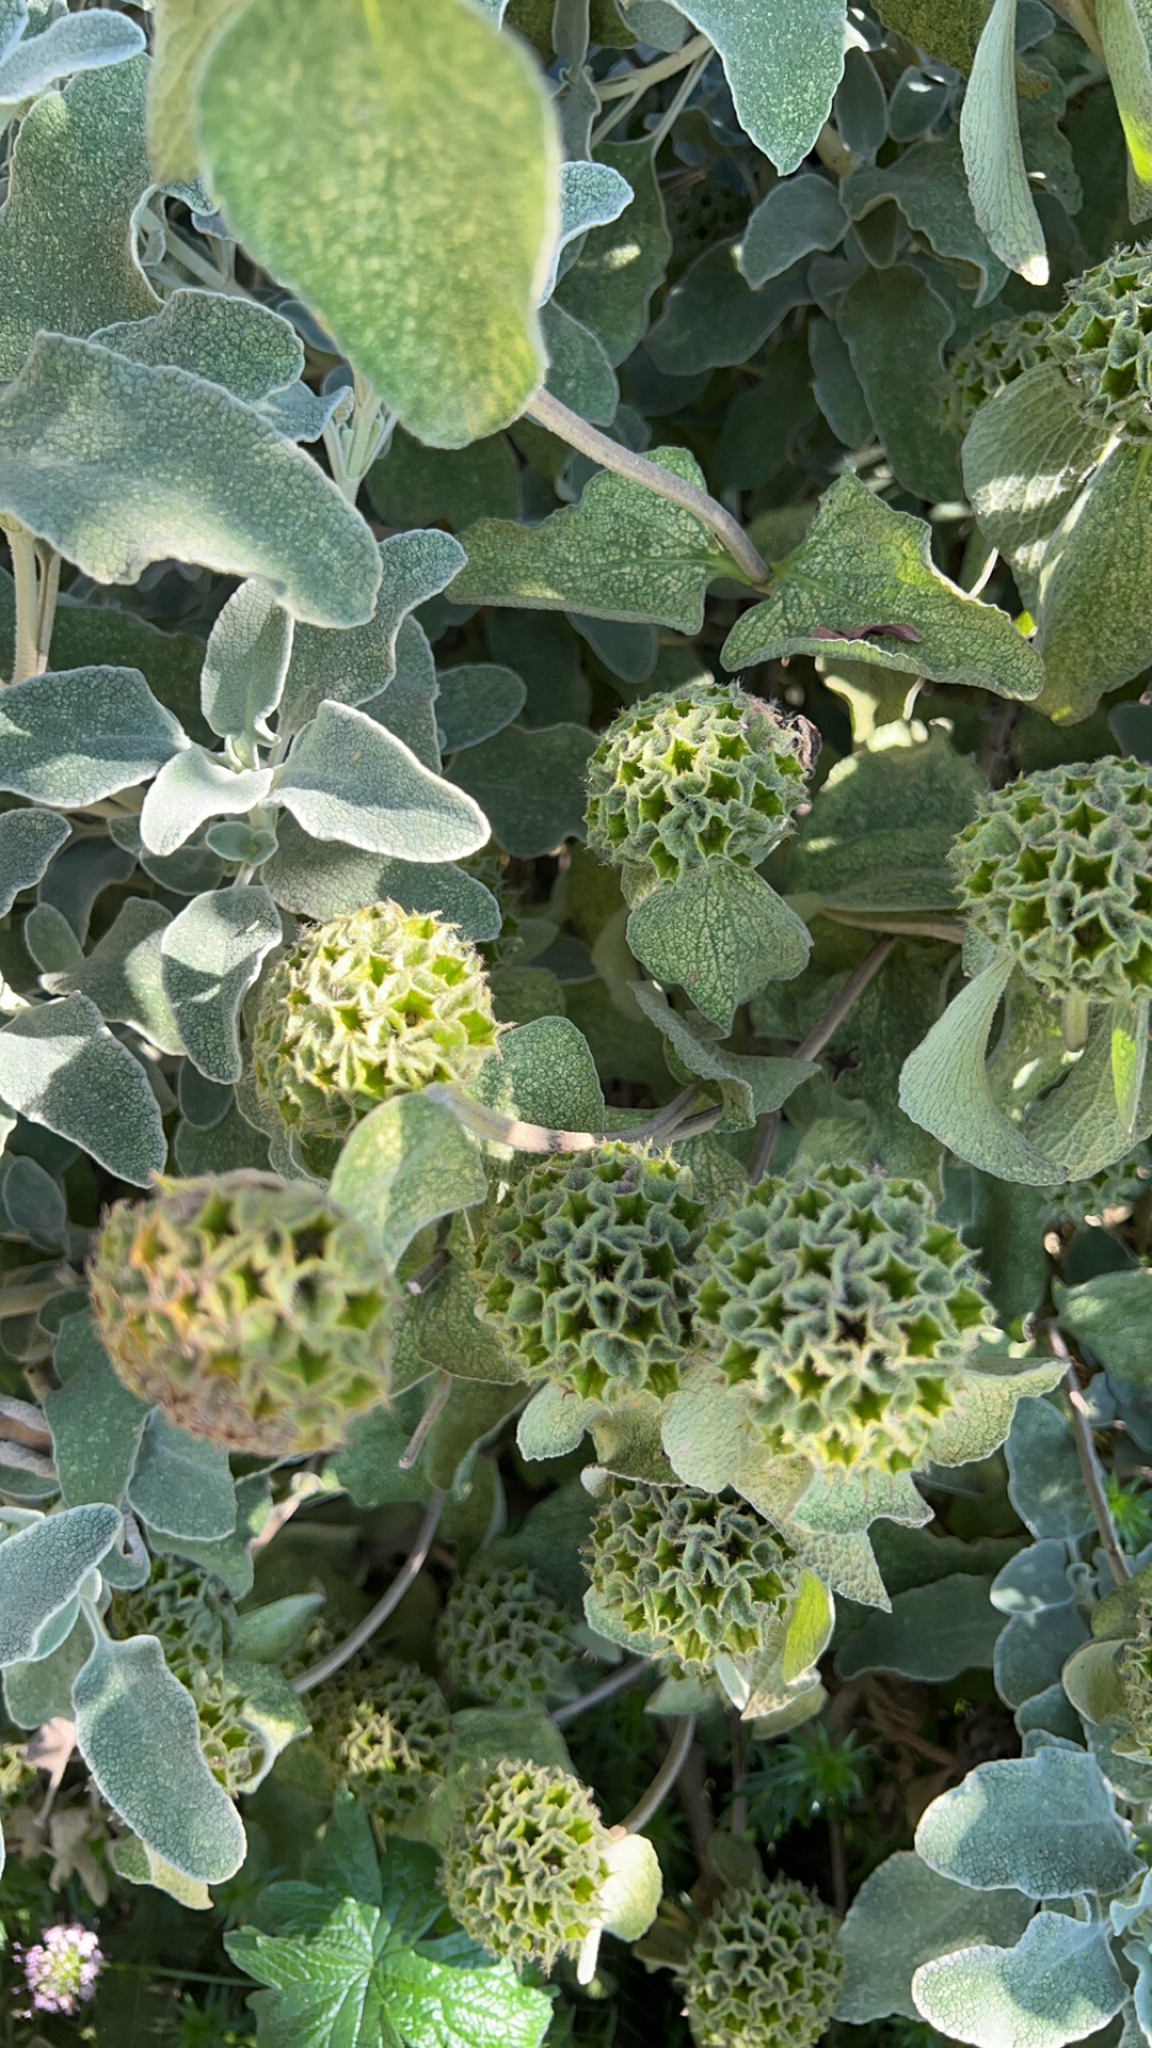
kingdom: Plantae
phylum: Tracheophyta
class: Magnoliopsida
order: Lamiales
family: Lamiaceae
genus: Phlomis
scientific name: Phlomis fruticosa
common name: Jerusalem sage
